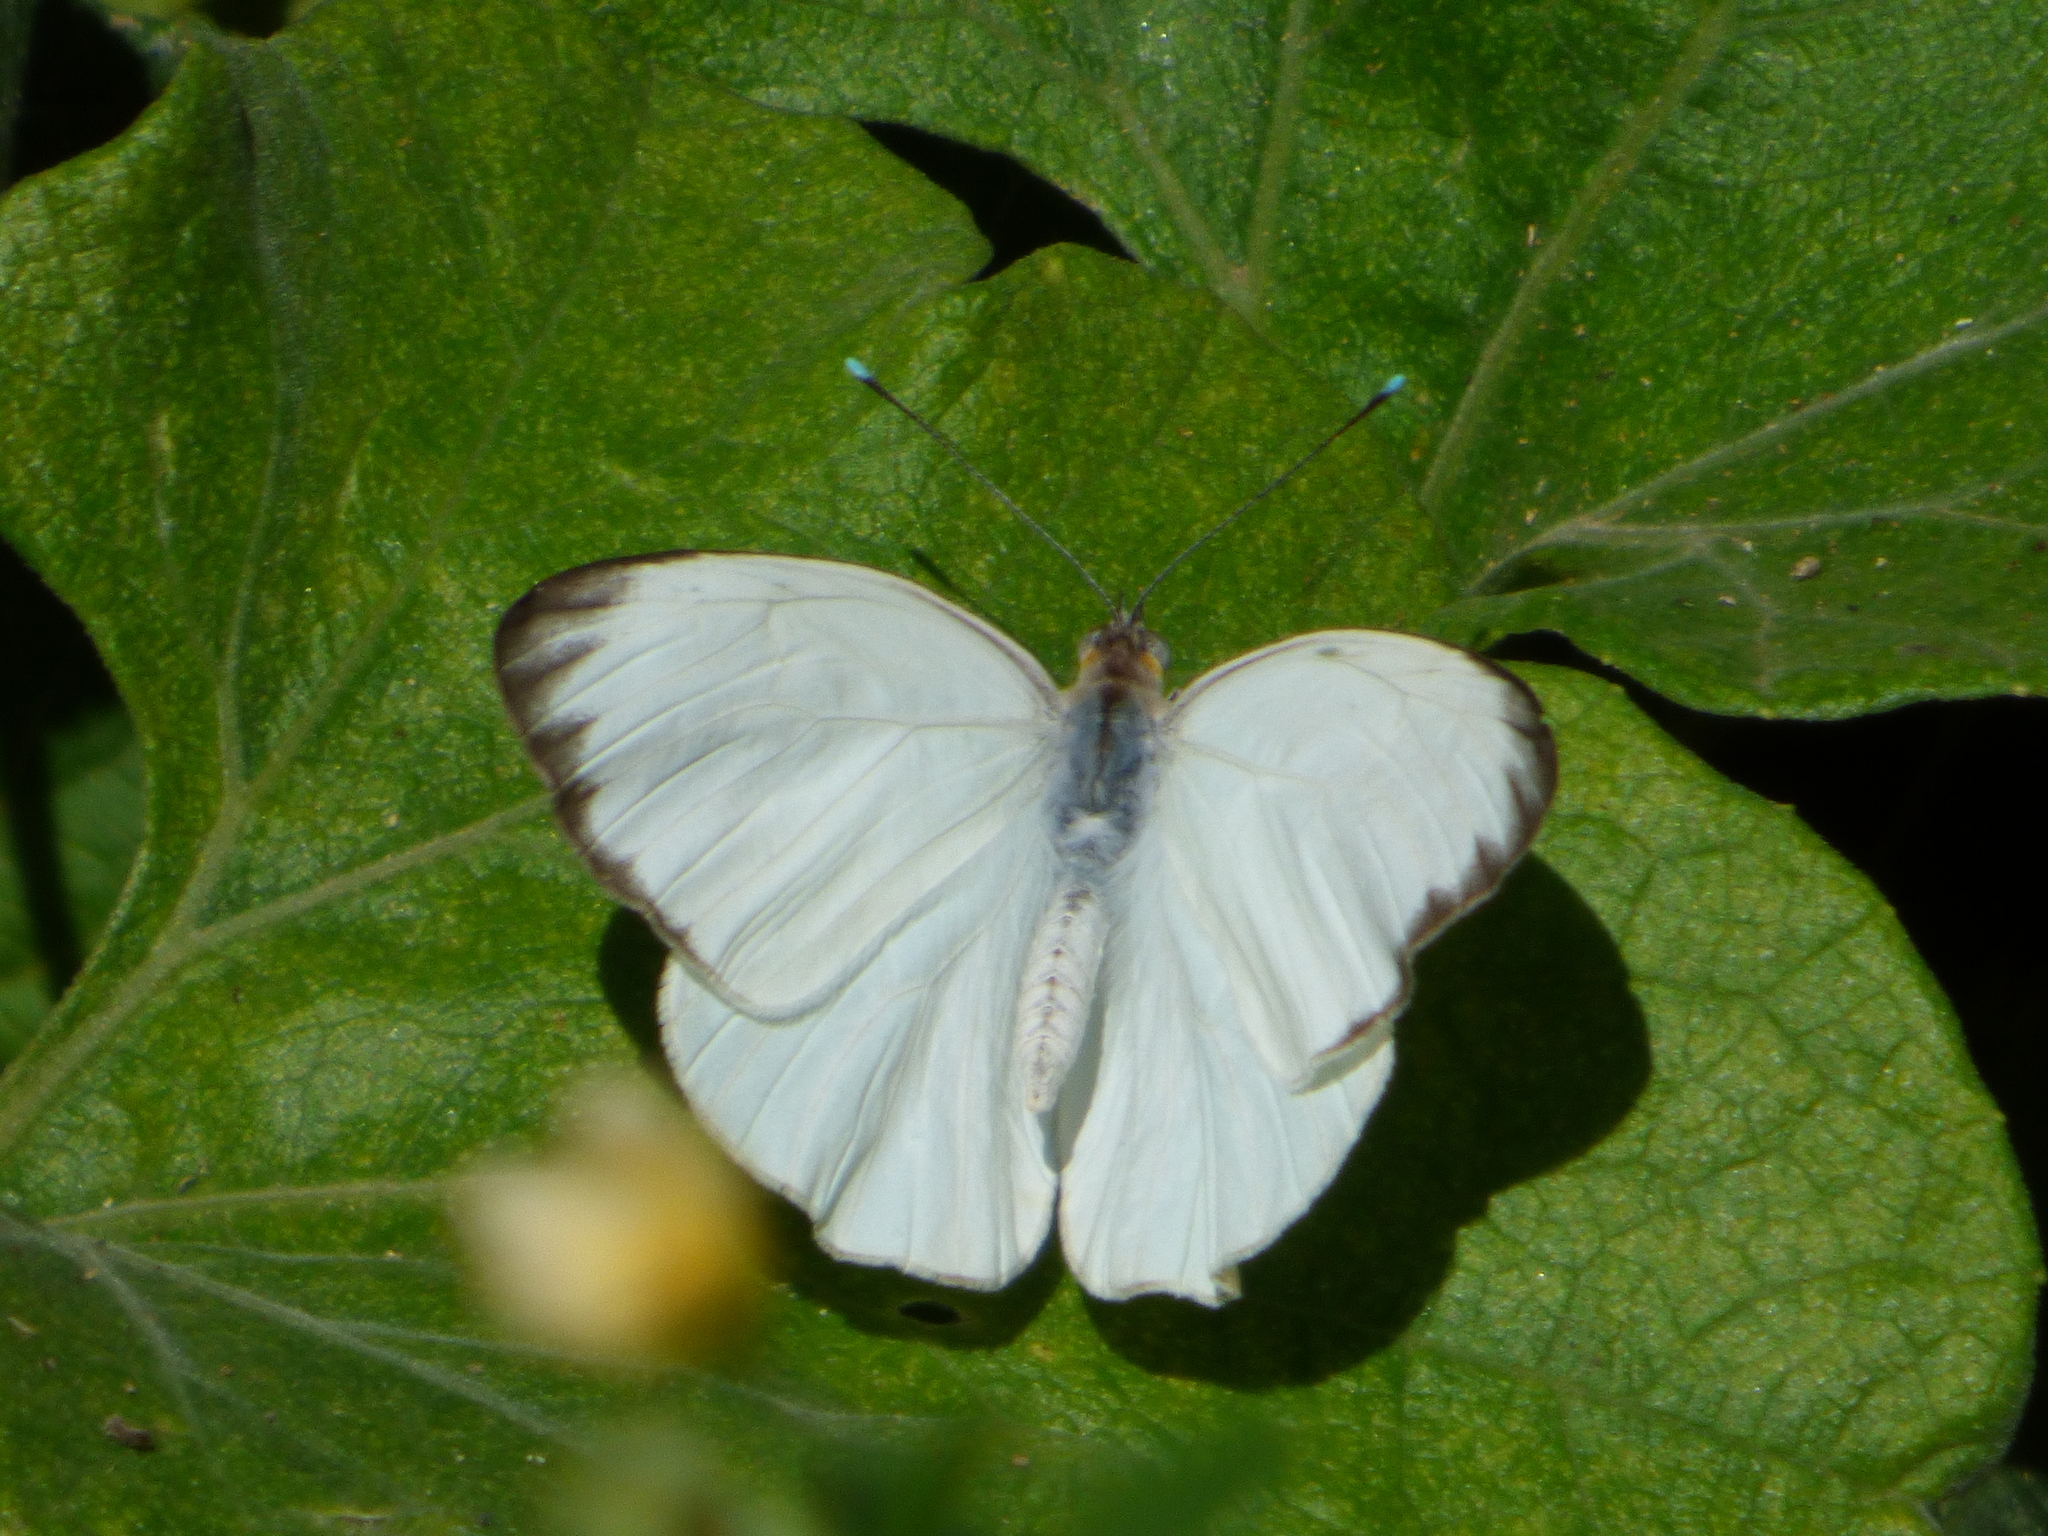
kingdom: Animalia
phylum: Arthropoda
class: Insecta
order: Lepidoptera
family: Pieridae
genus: Ascia
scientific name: Ascia monuste
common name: Great southern white
